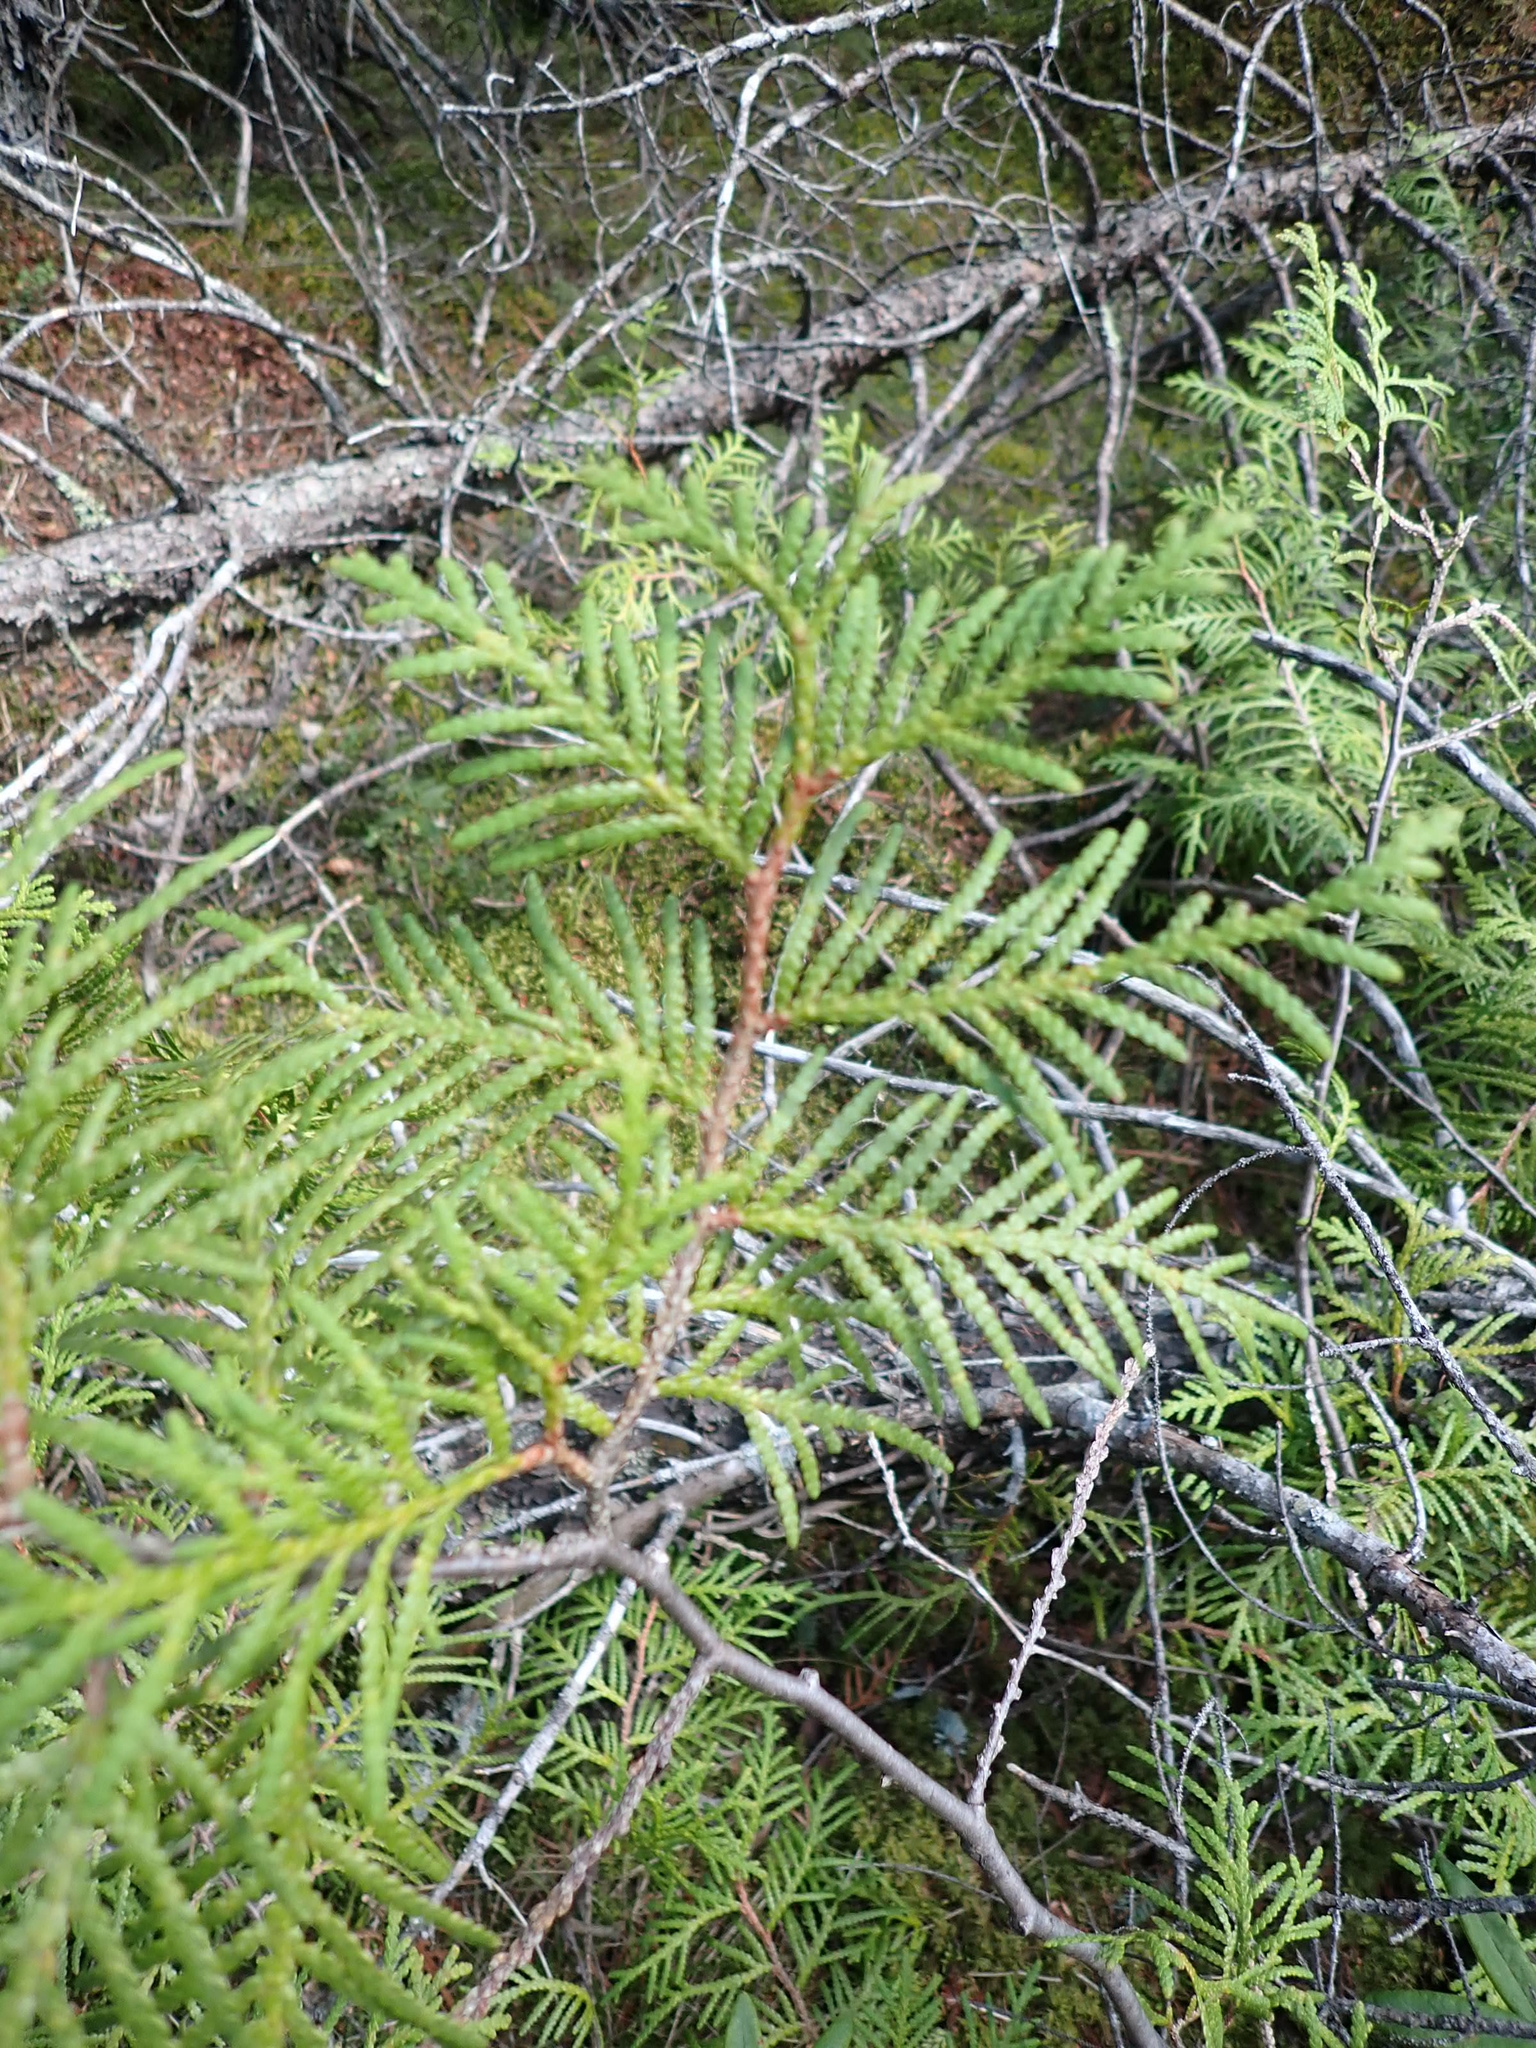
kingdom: Plantae
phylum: Tracheophyta
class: Pinopsida
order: Pinales
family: Cupressaceae
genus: Thuja
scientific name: Thuja occidentalis
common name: Northern white-cedar
